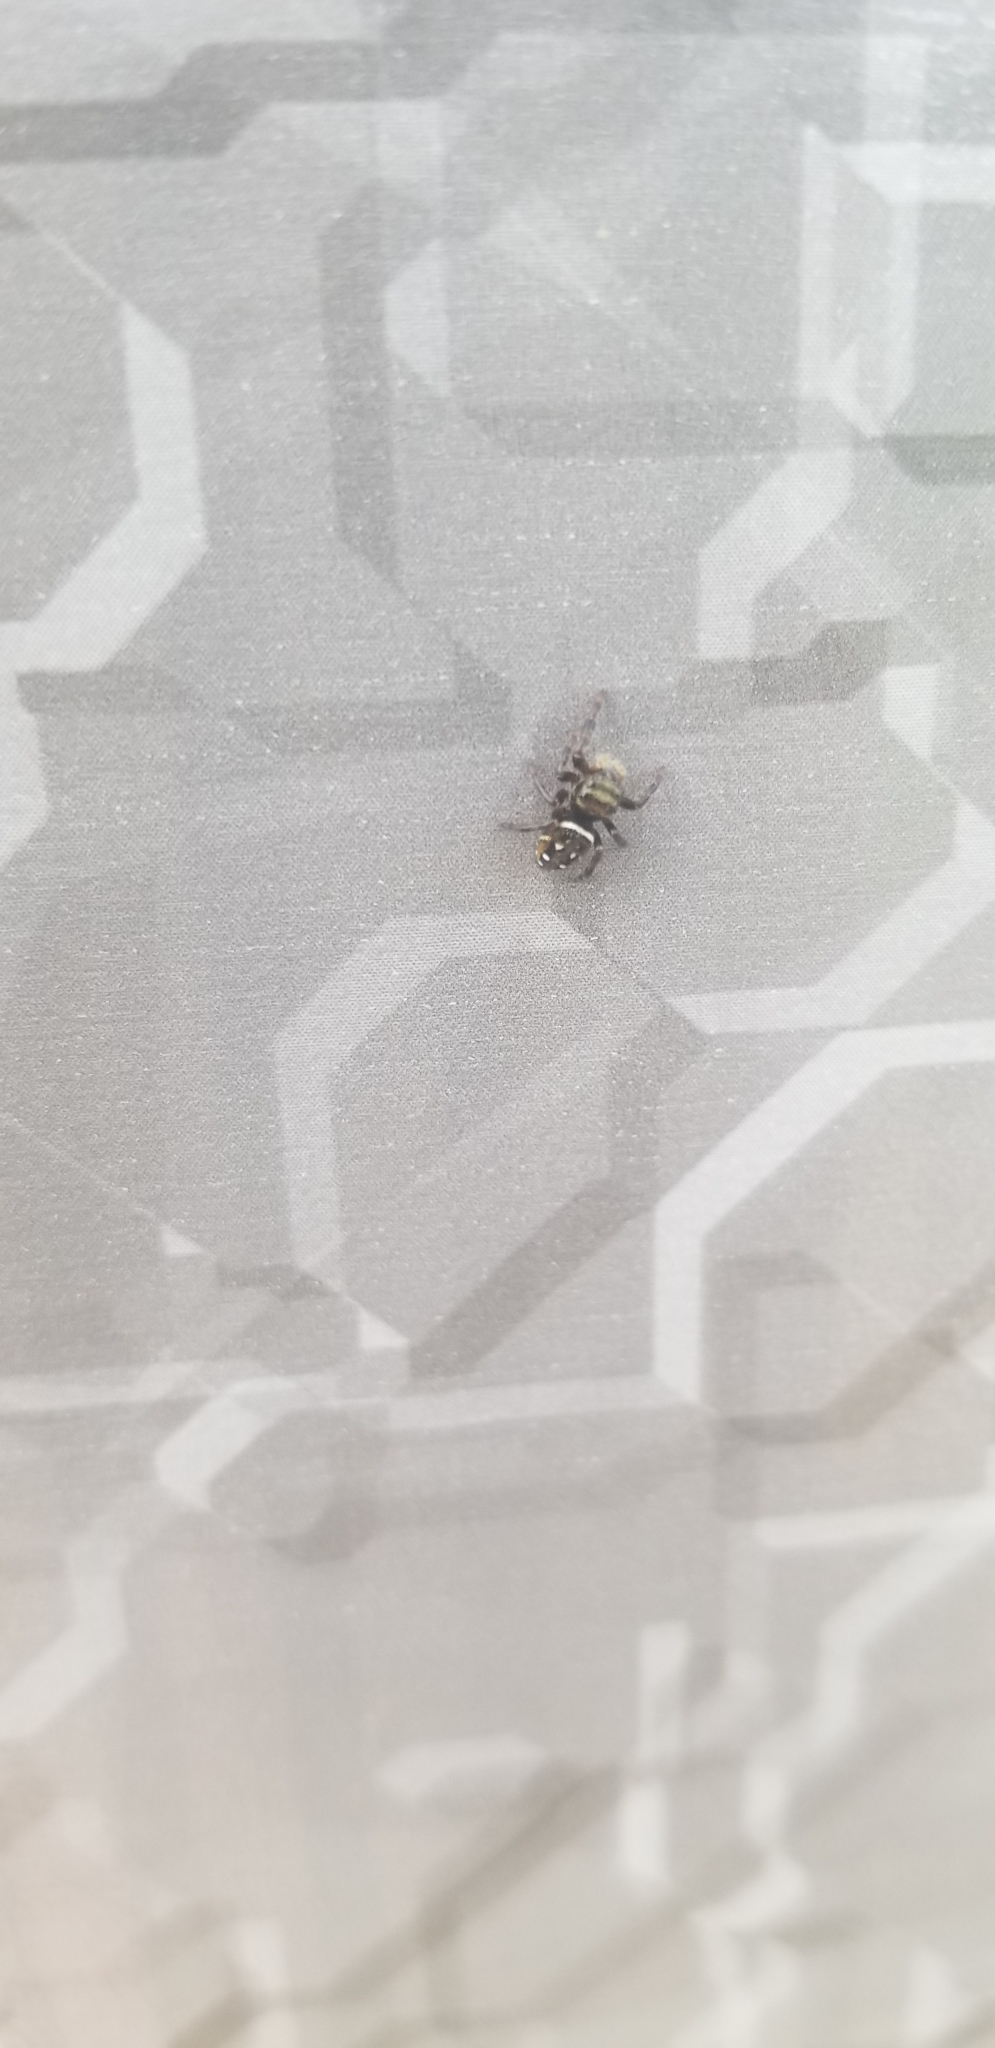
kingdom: Animalia
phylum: Arthropoda
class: Arachnida
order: Araneae
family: Salticidae
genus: Phidippus
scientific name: Phidippus clarus
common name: Brilliant jumping spider
